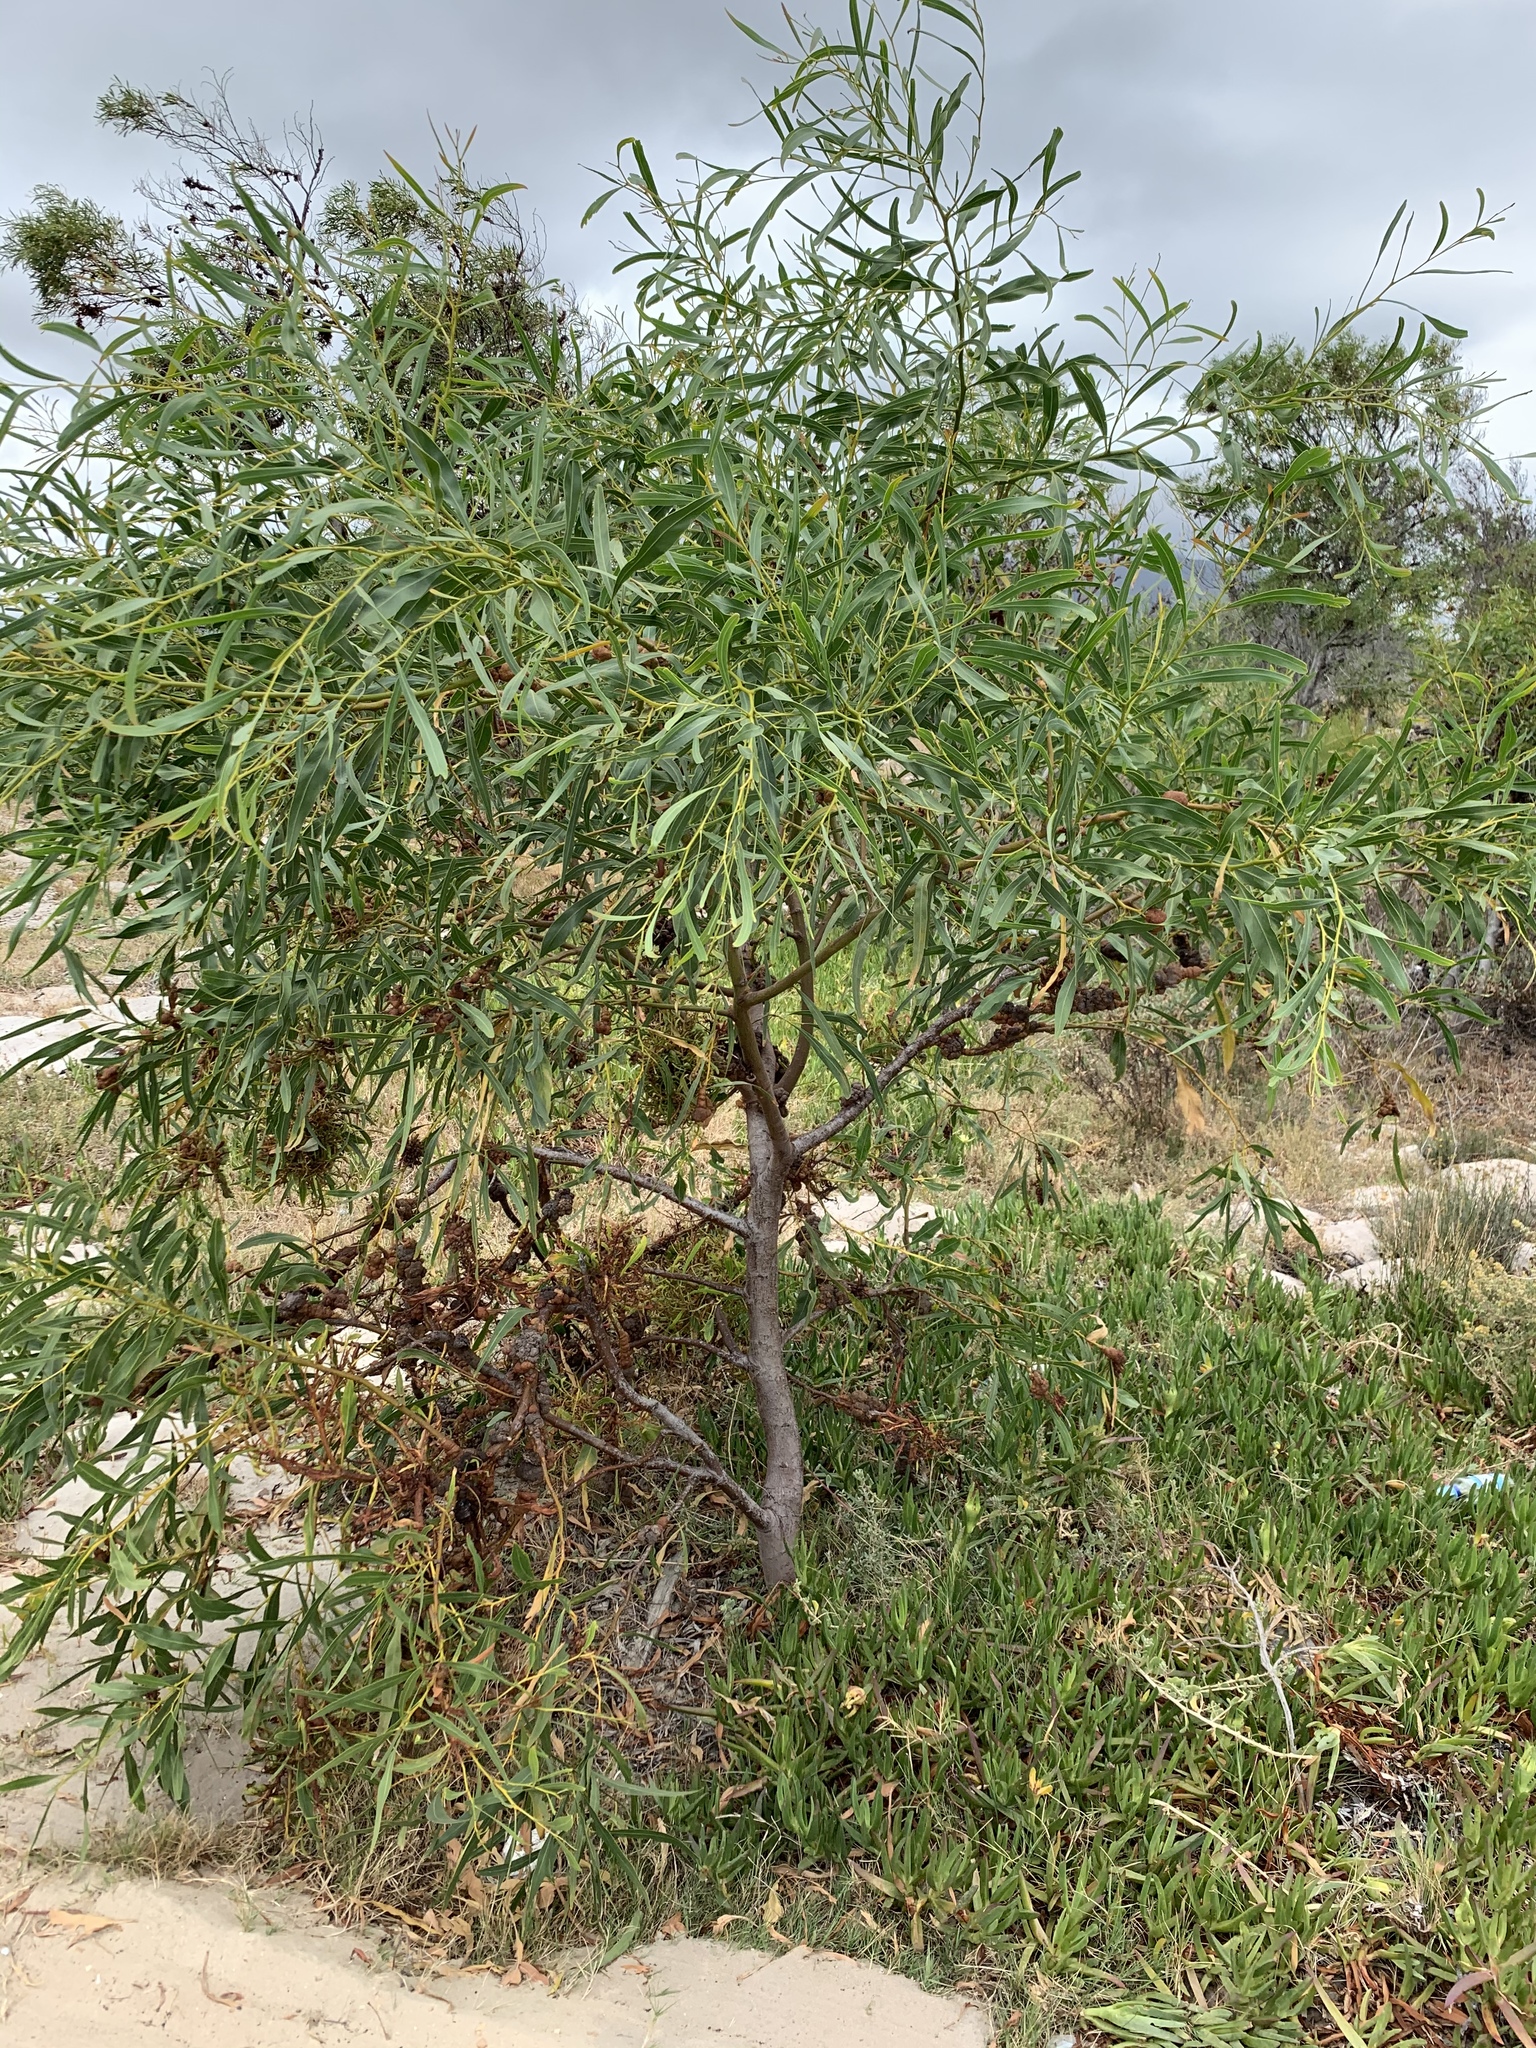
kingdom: Plantae
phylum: Tracheophyta
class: Magnoliopsida
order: Fabales
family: Fabaceae
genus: Acacia
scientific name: Acacia saligna
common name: Orange wattle
